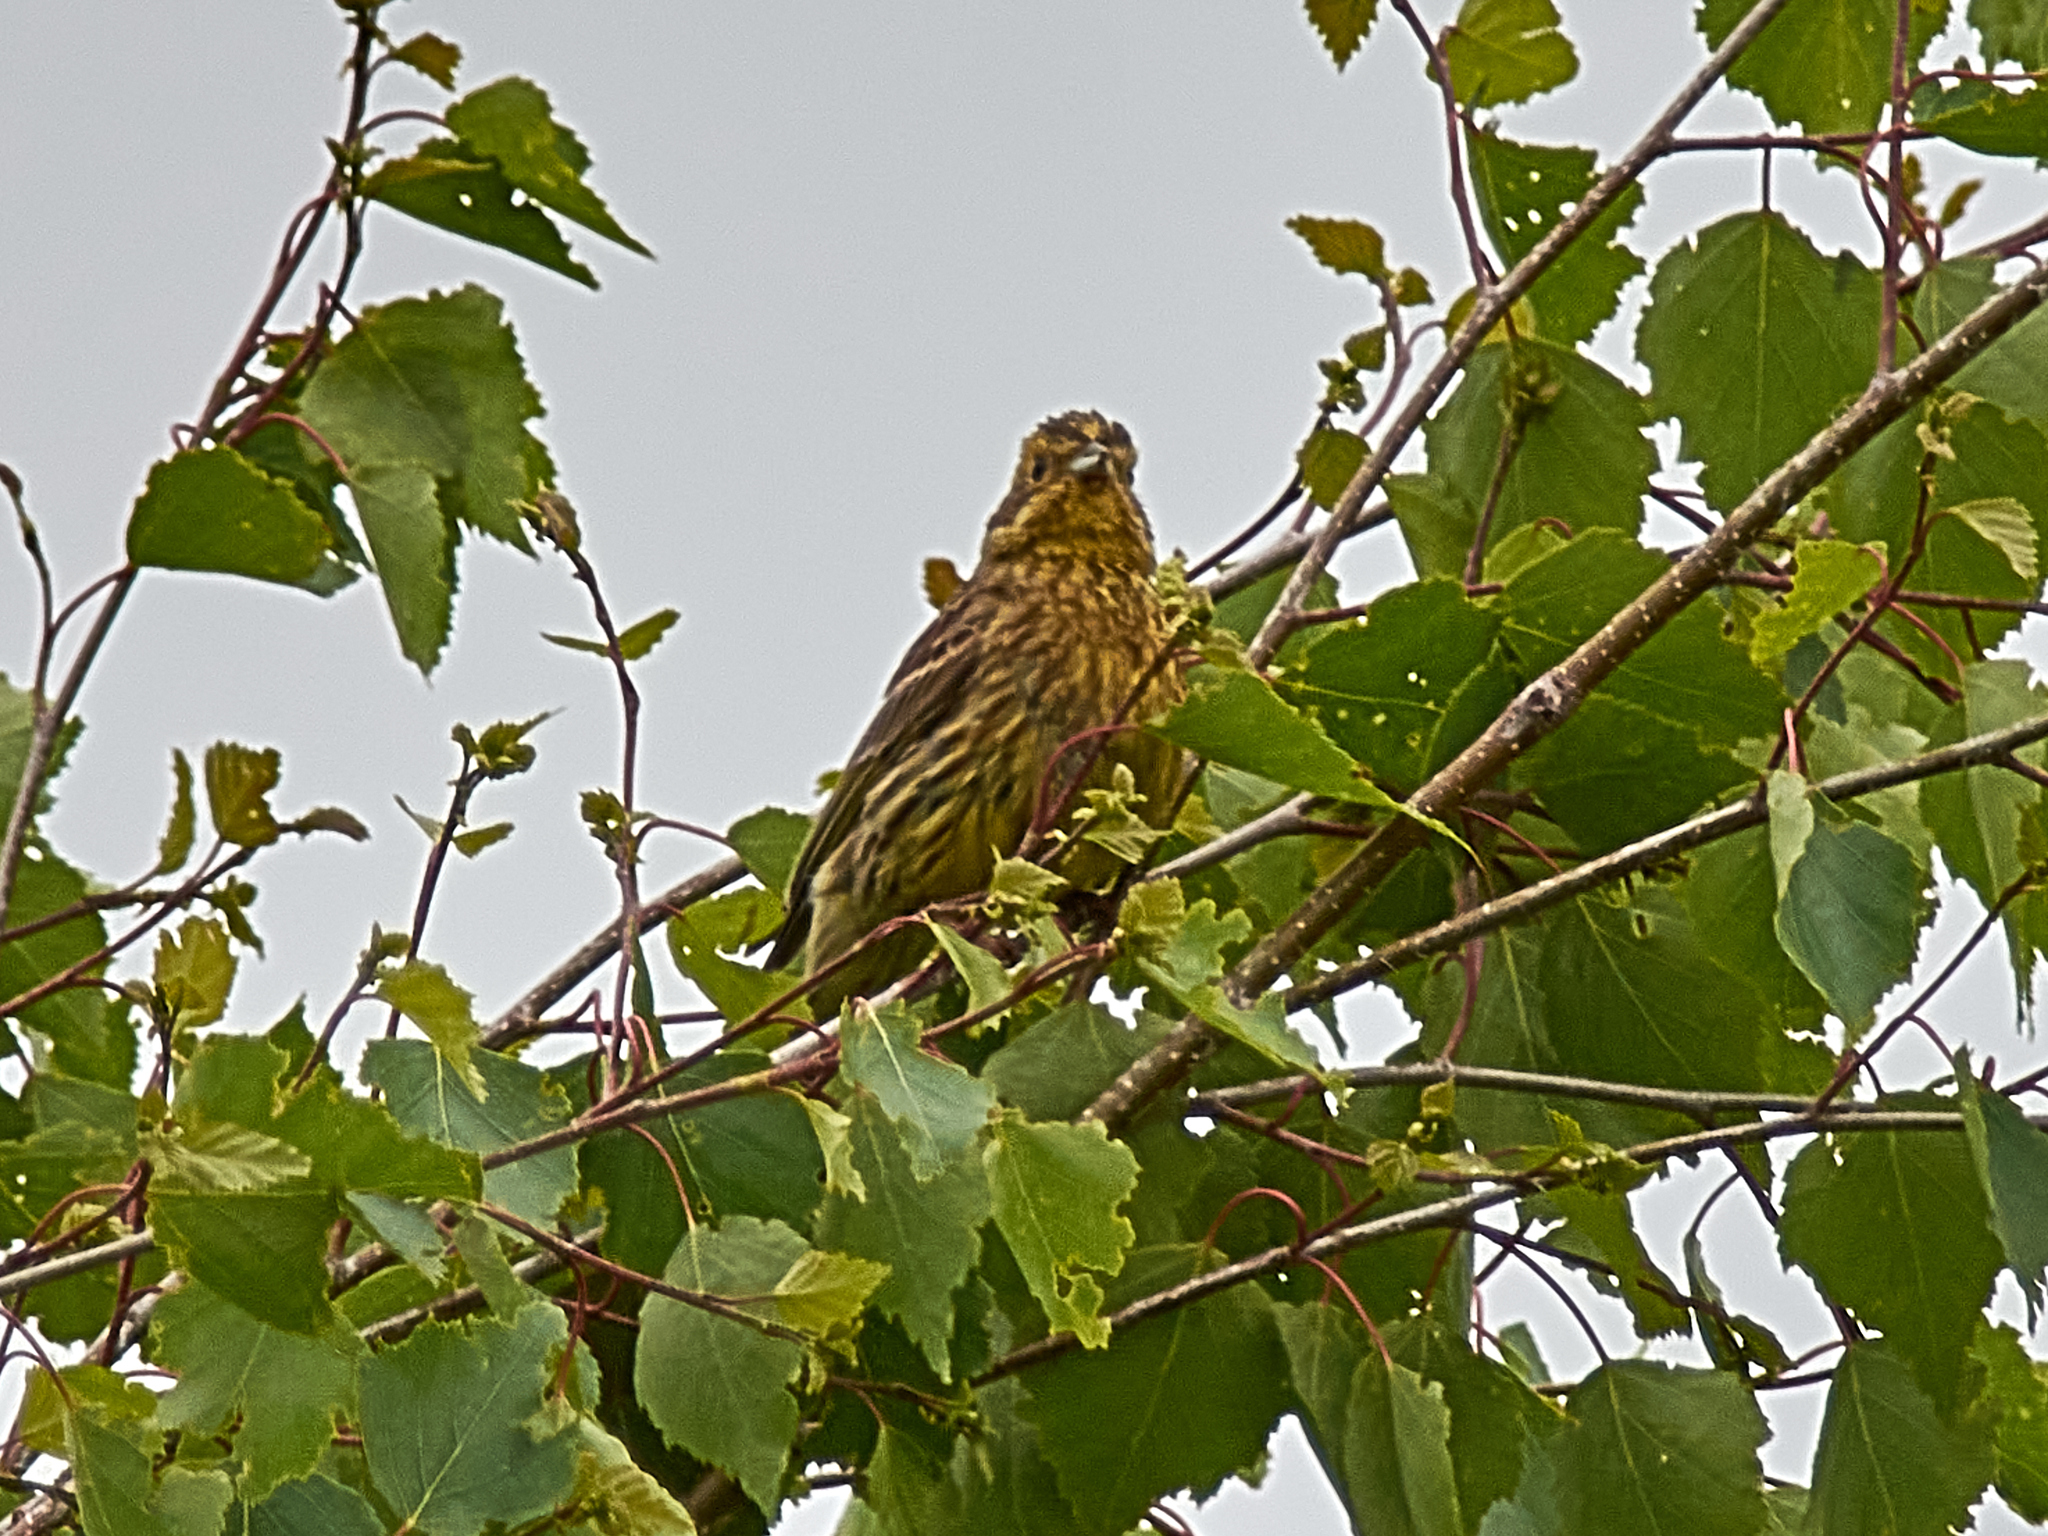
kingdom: Animalia
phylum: Chordata
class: Aves
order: Passeriformes
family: Emberizidae
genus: Emberiza
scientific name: Emberiza citrinella
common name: Yellowhammer
